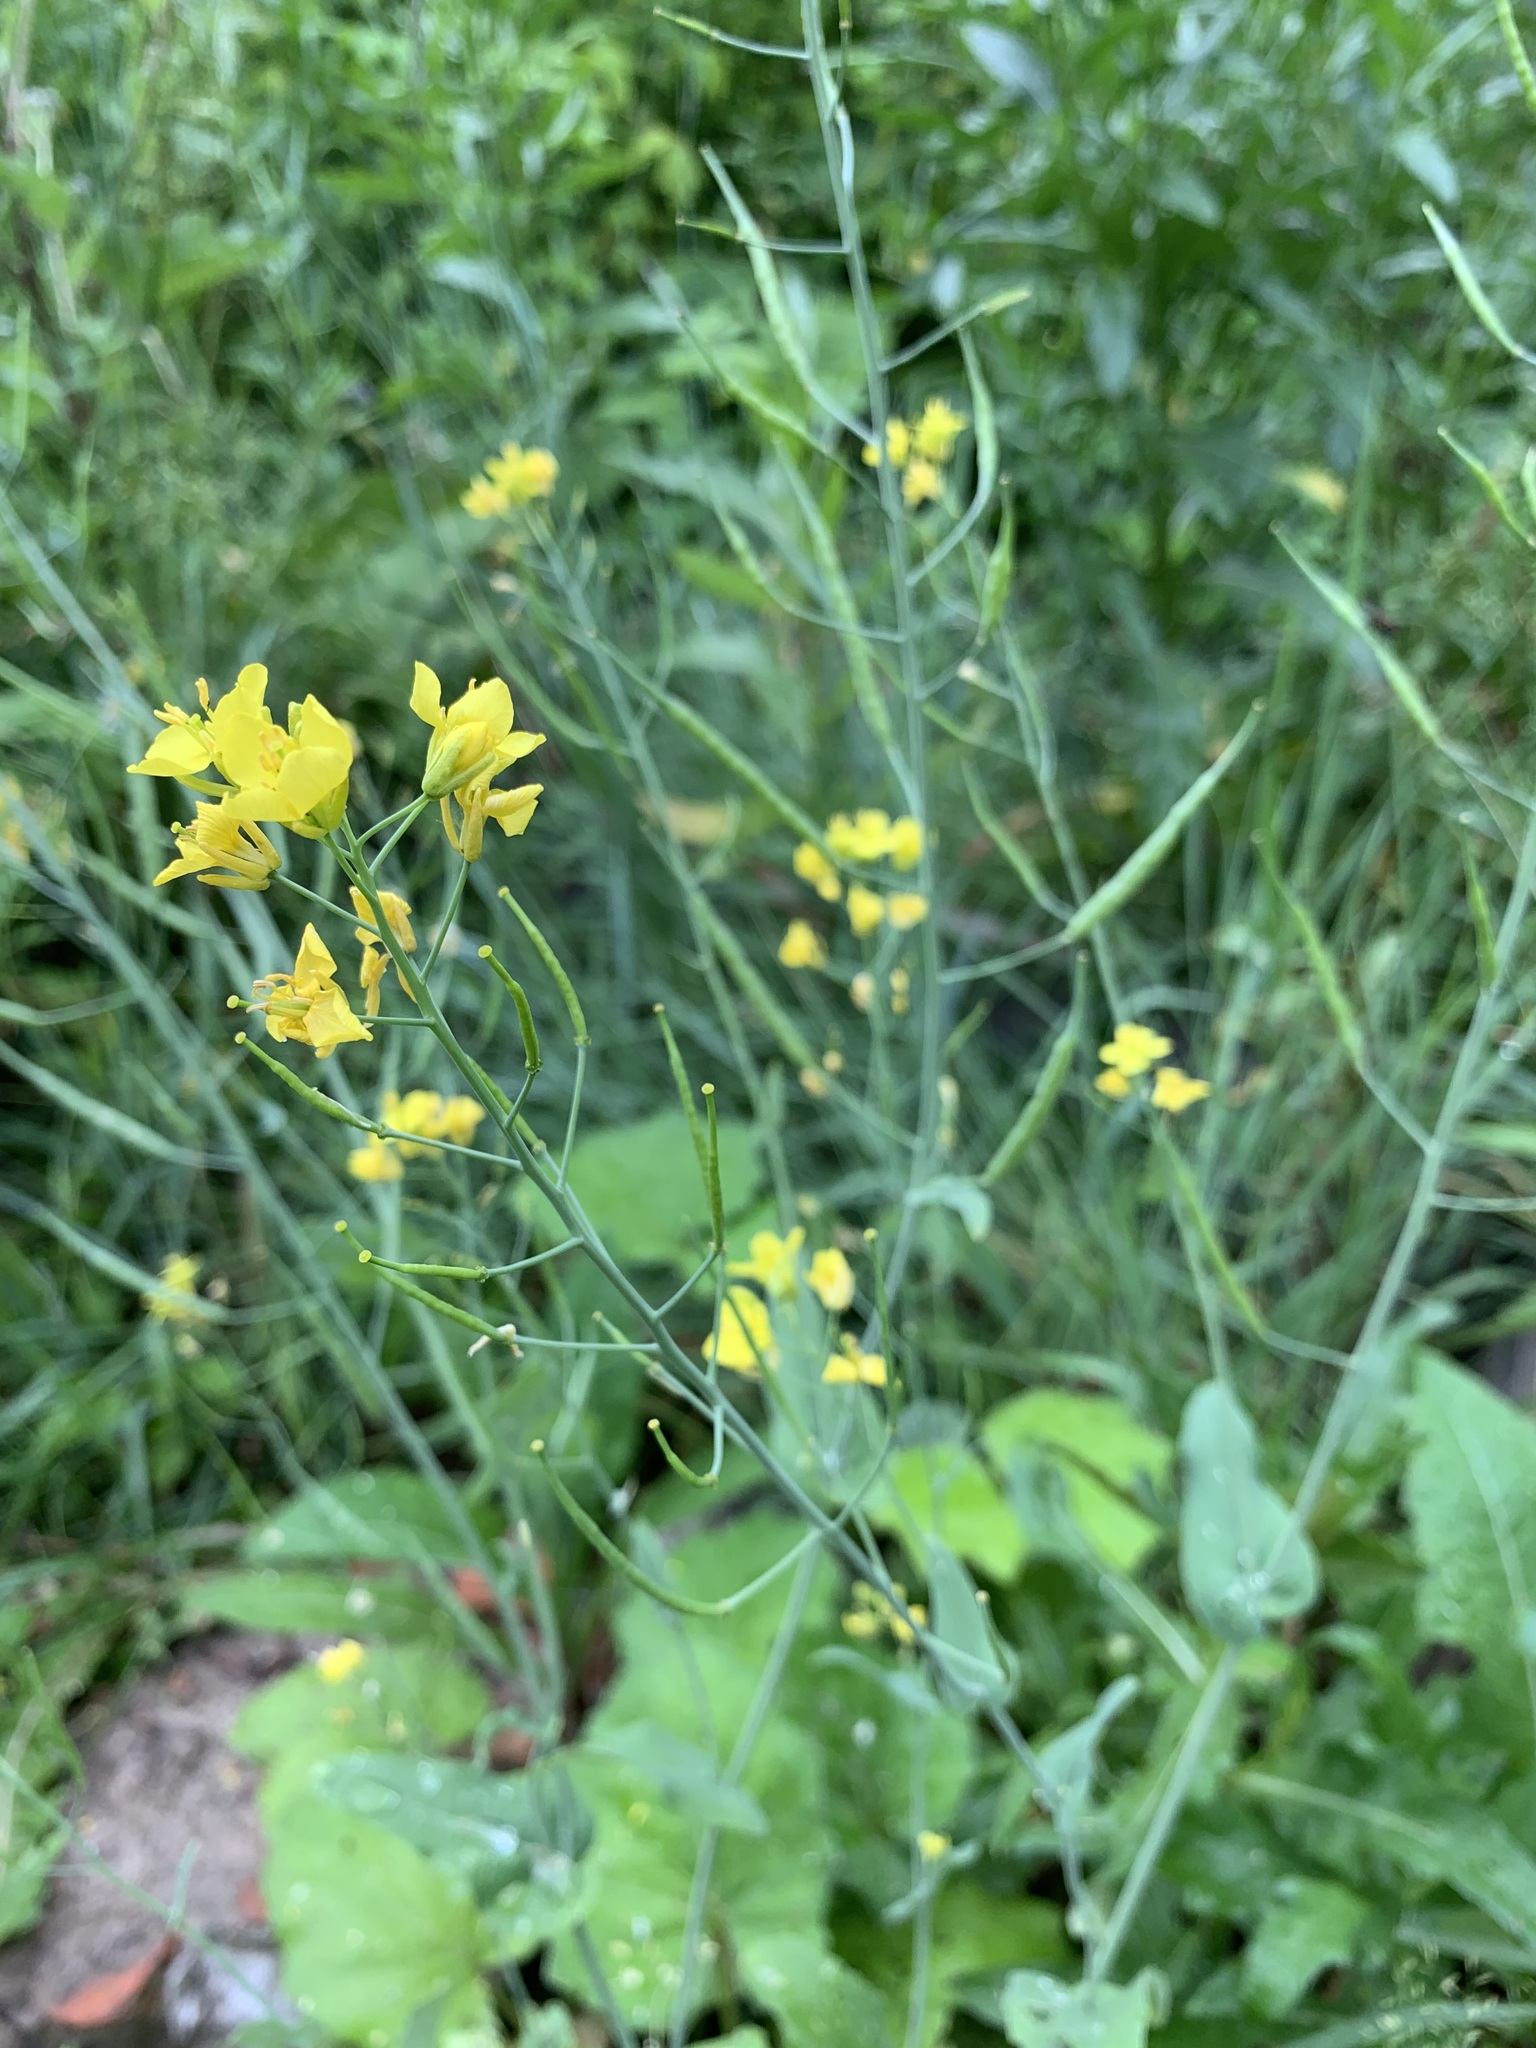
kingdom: Plantae
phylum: Tracheophyta
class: Magnoliopsida
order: Brassicales
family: Brassicaceae
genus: Brassica
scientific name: Brassica napus
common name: Rape
